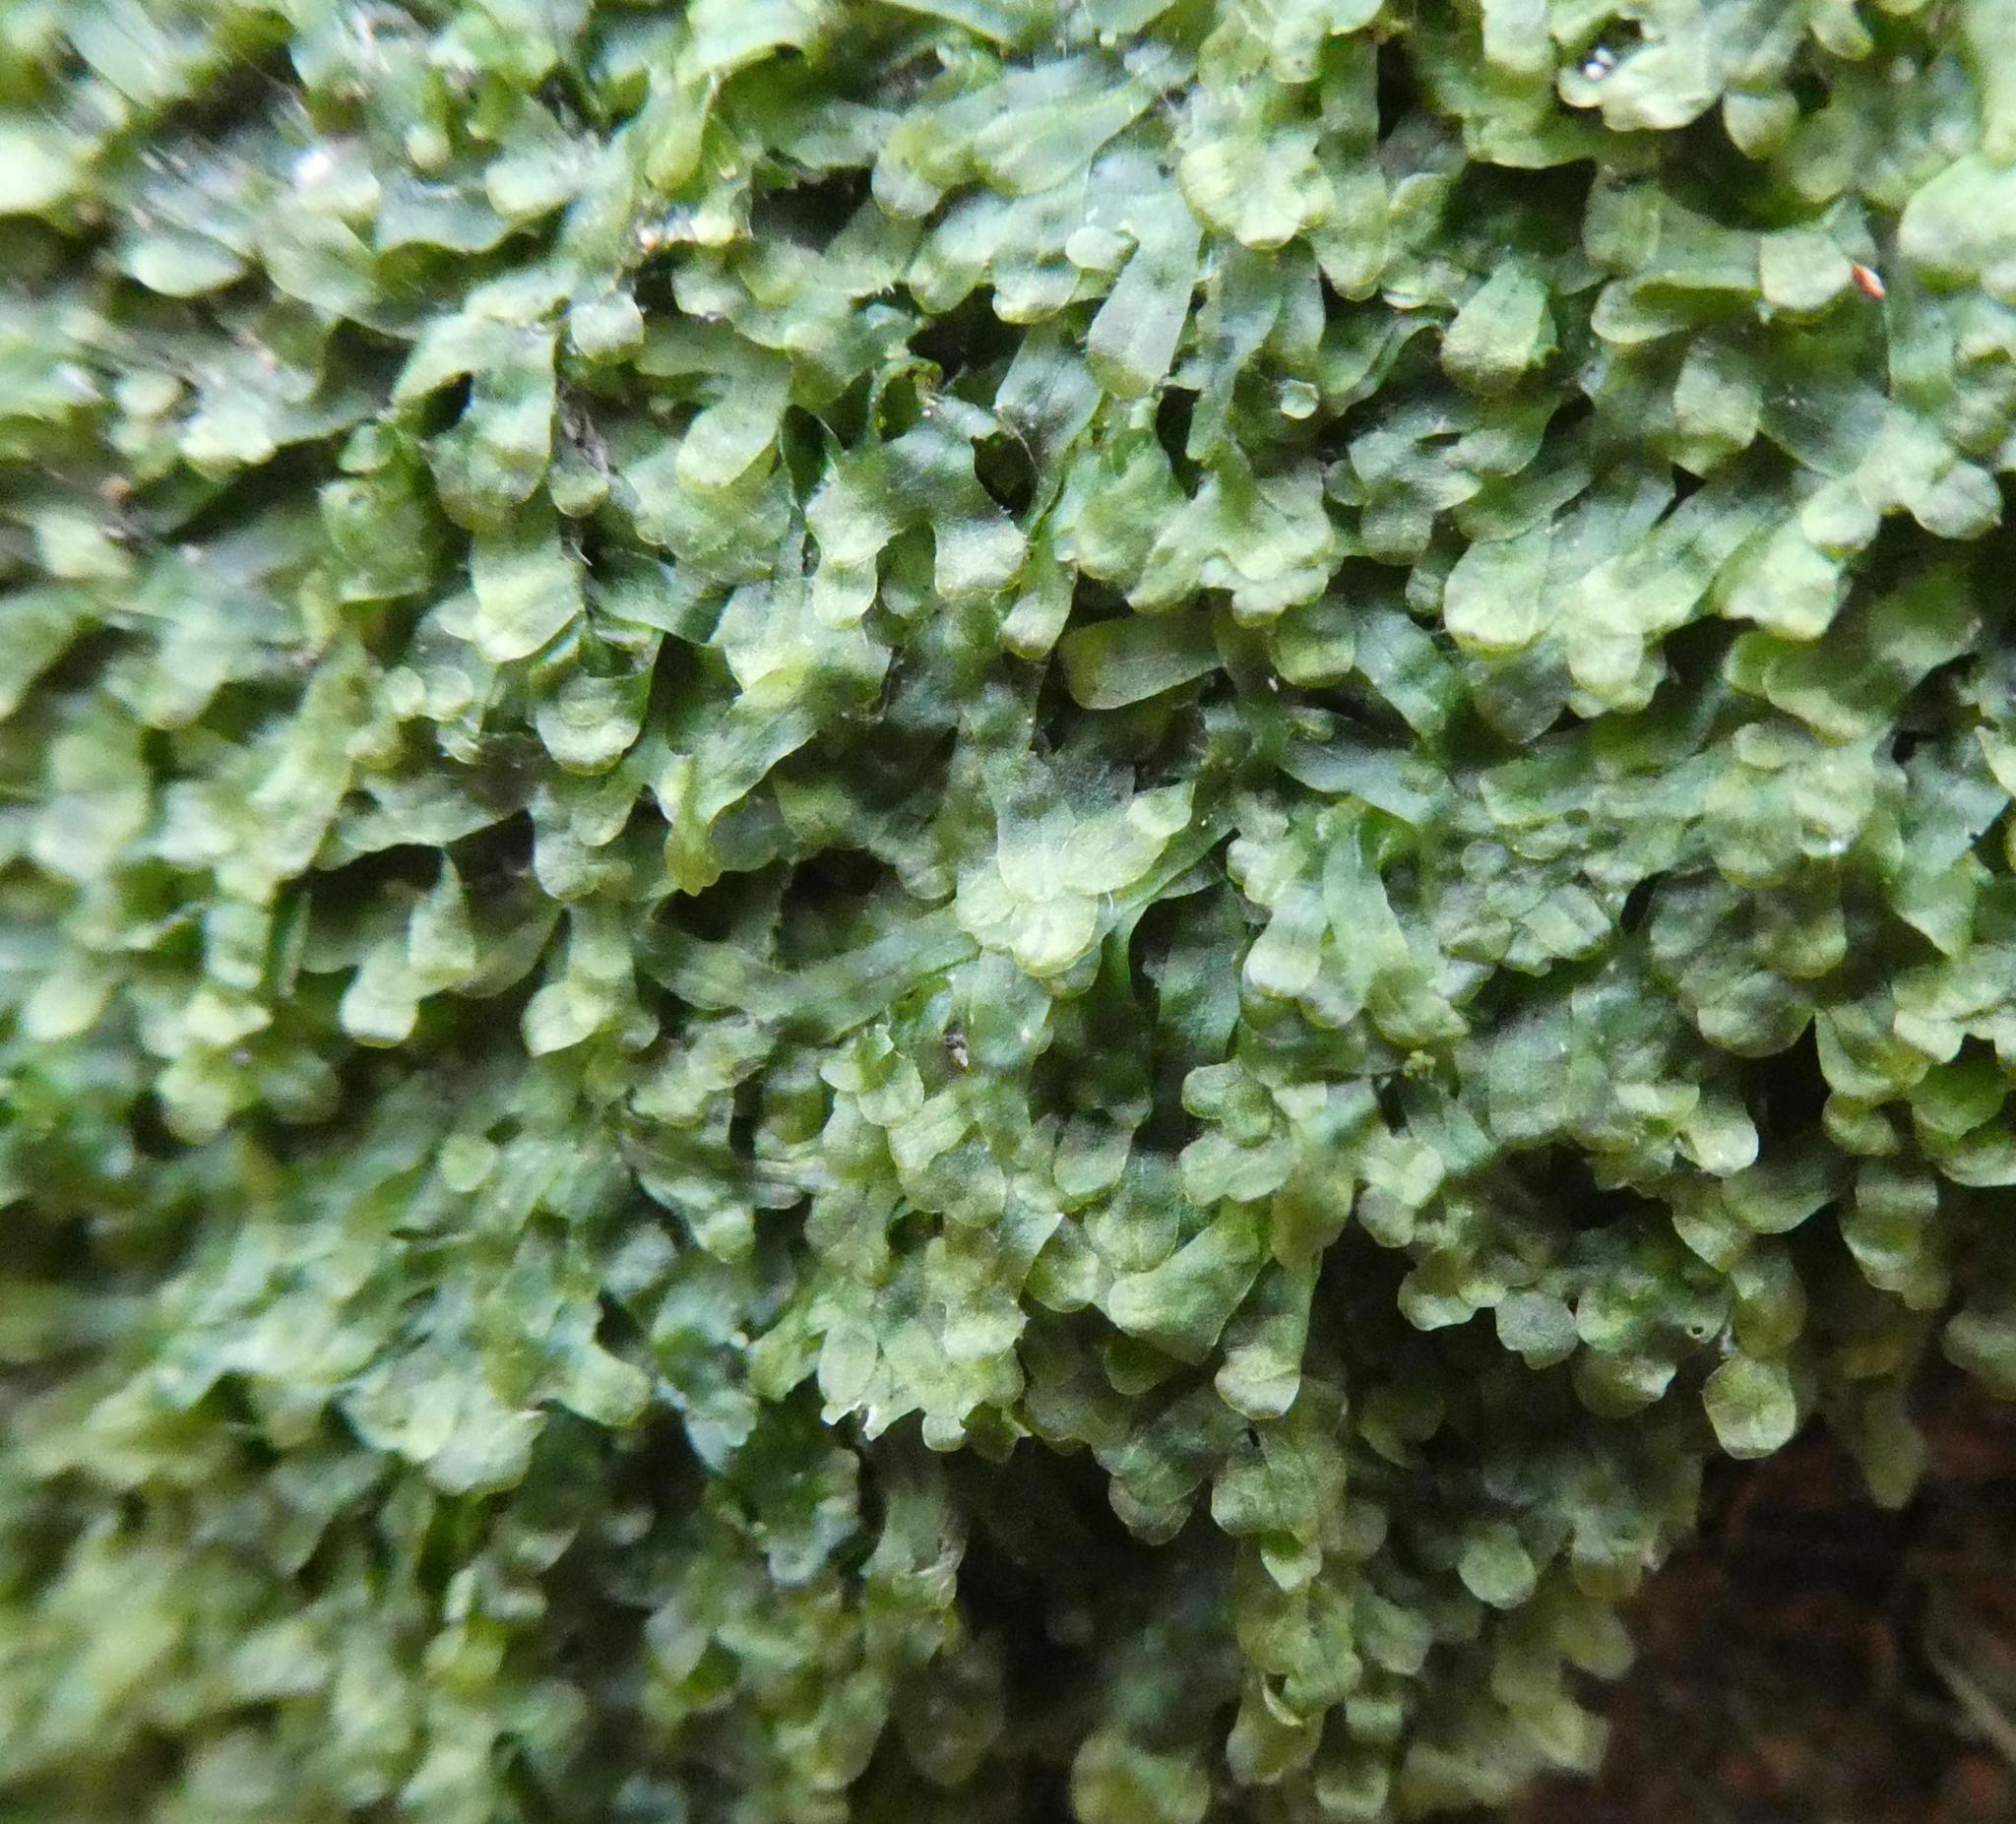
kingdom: Plantae
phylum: Marchantiophyta
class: Jungermanniopsida
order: Metzgeriales
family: Metzgeriaceae
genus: Metzgeria
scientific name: Metzgeria furcata
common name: Forked veilwort
